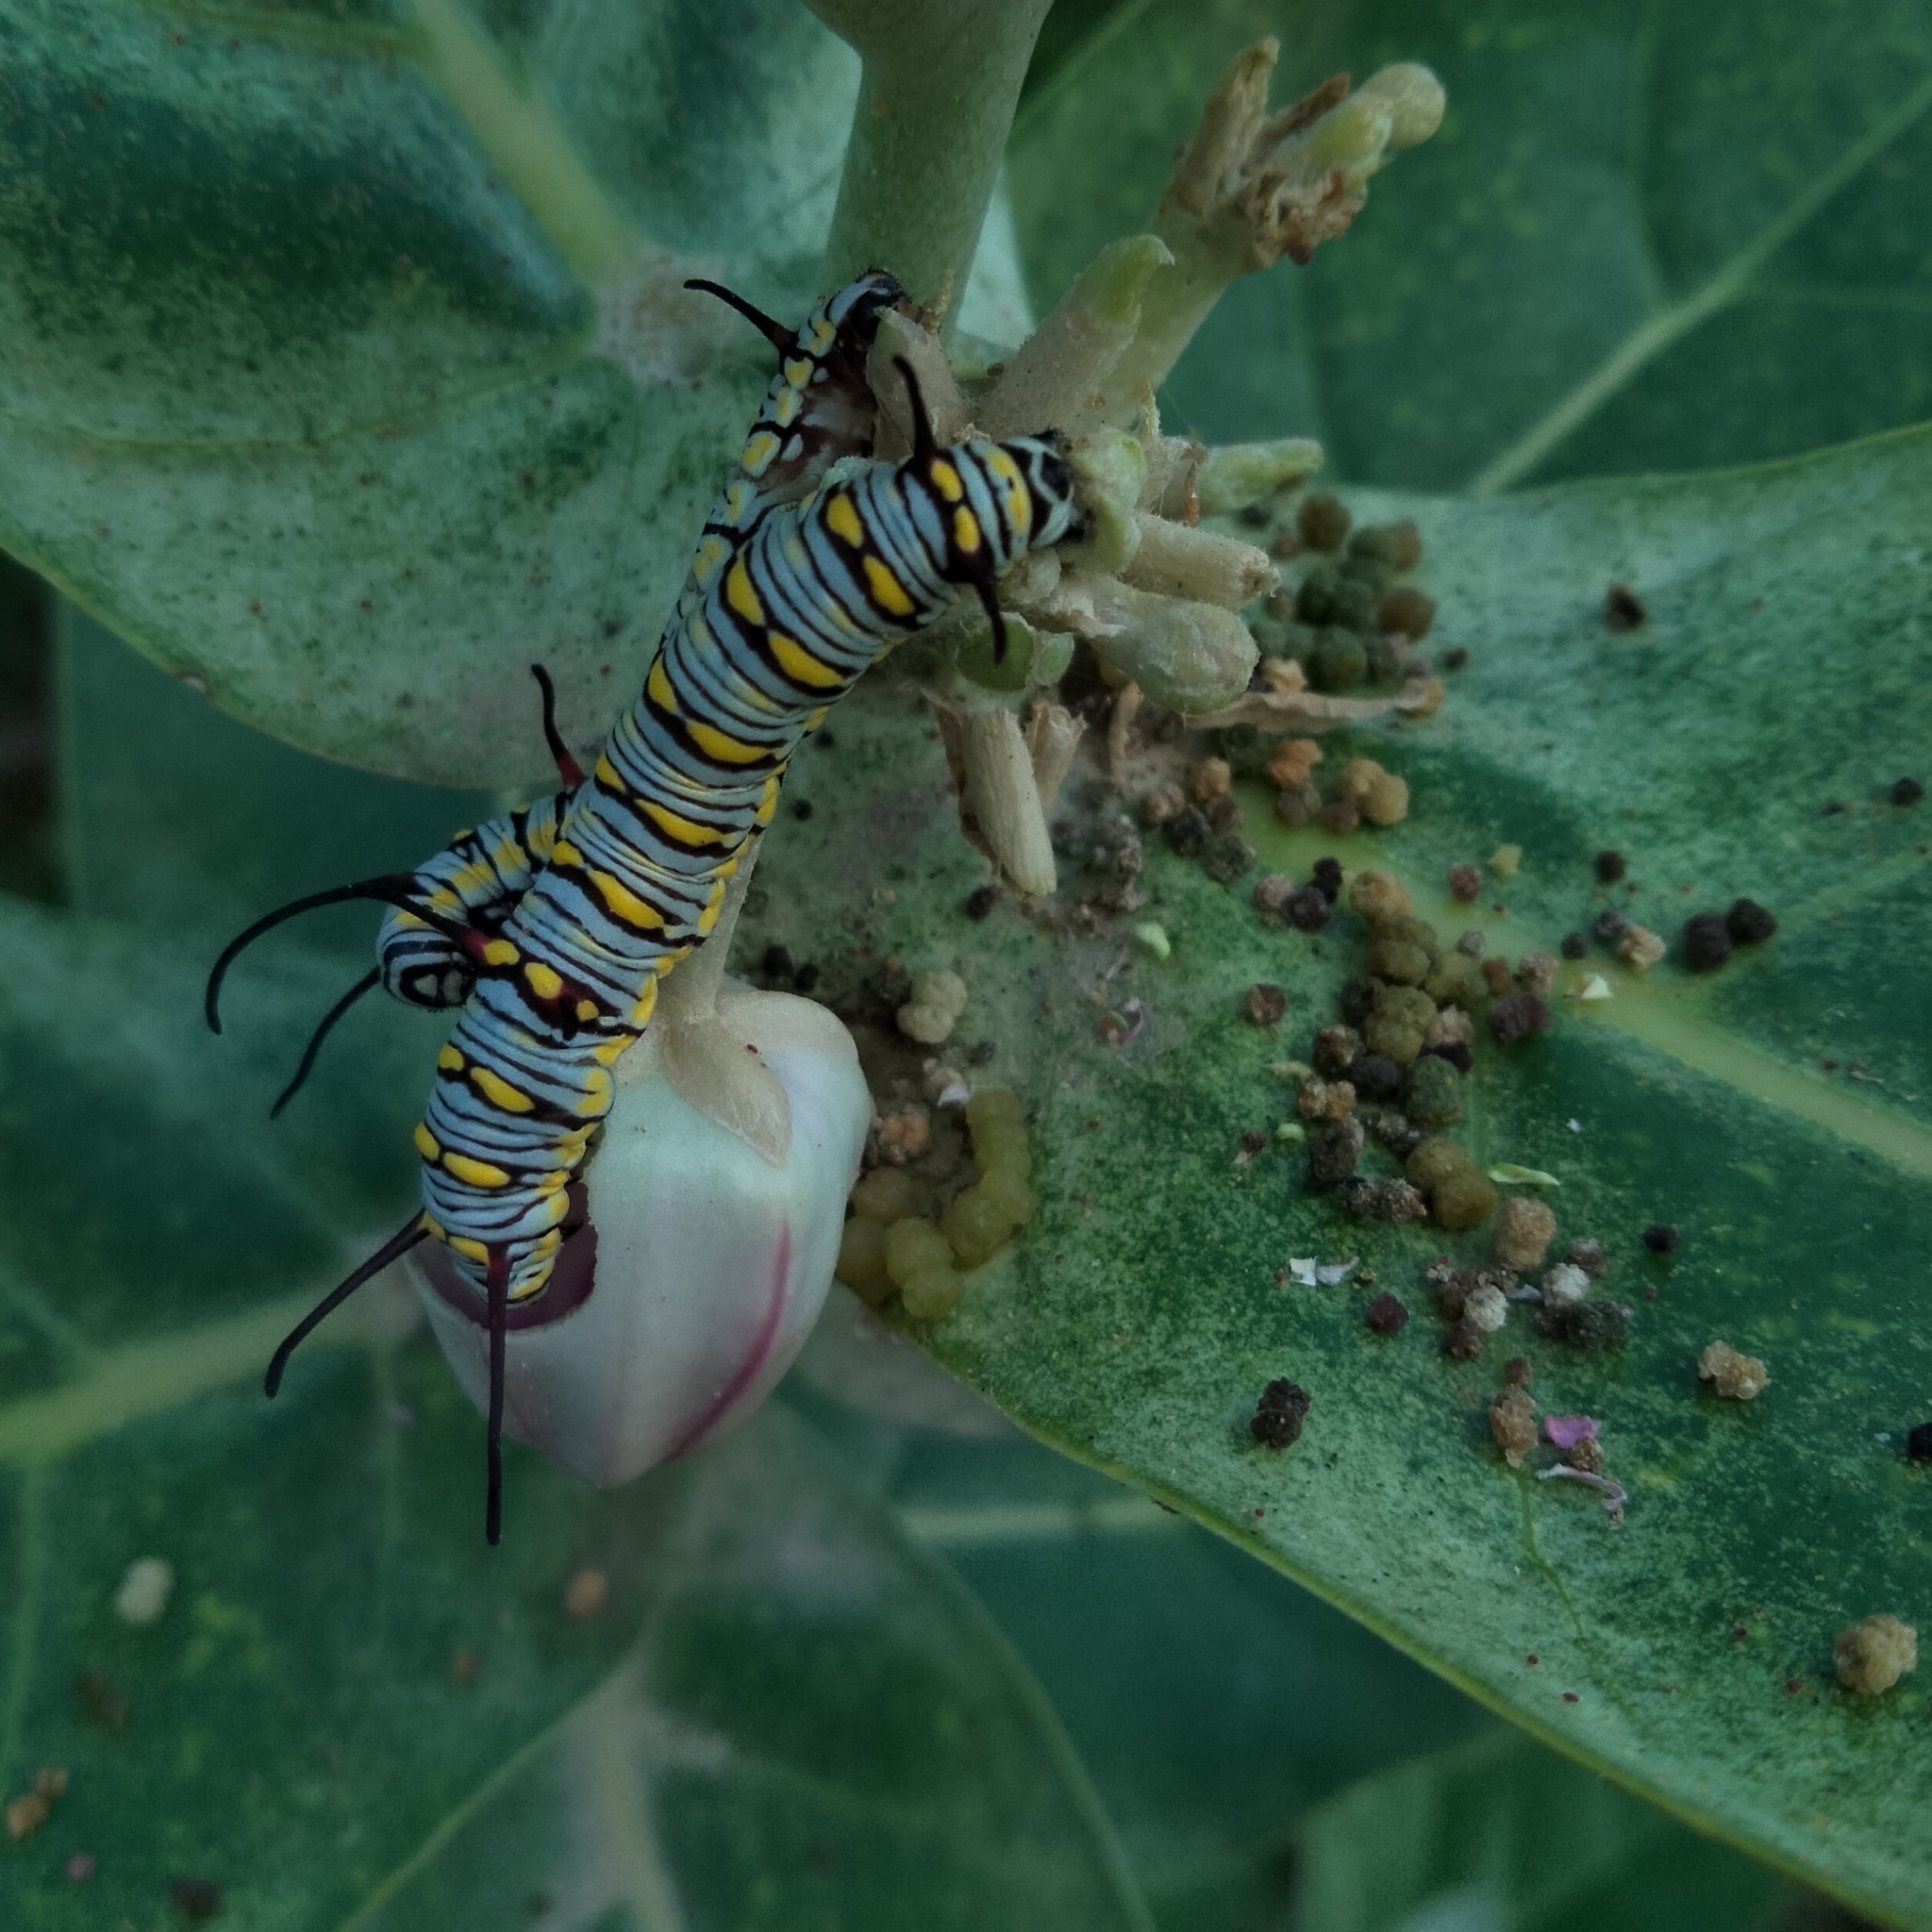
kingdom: Animalia
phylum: Arthropoda
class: Insecta
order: Lepidoptera
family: Nymphalidae
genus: Danaus
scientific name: Danaus chrysippus
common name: Plain tiger
